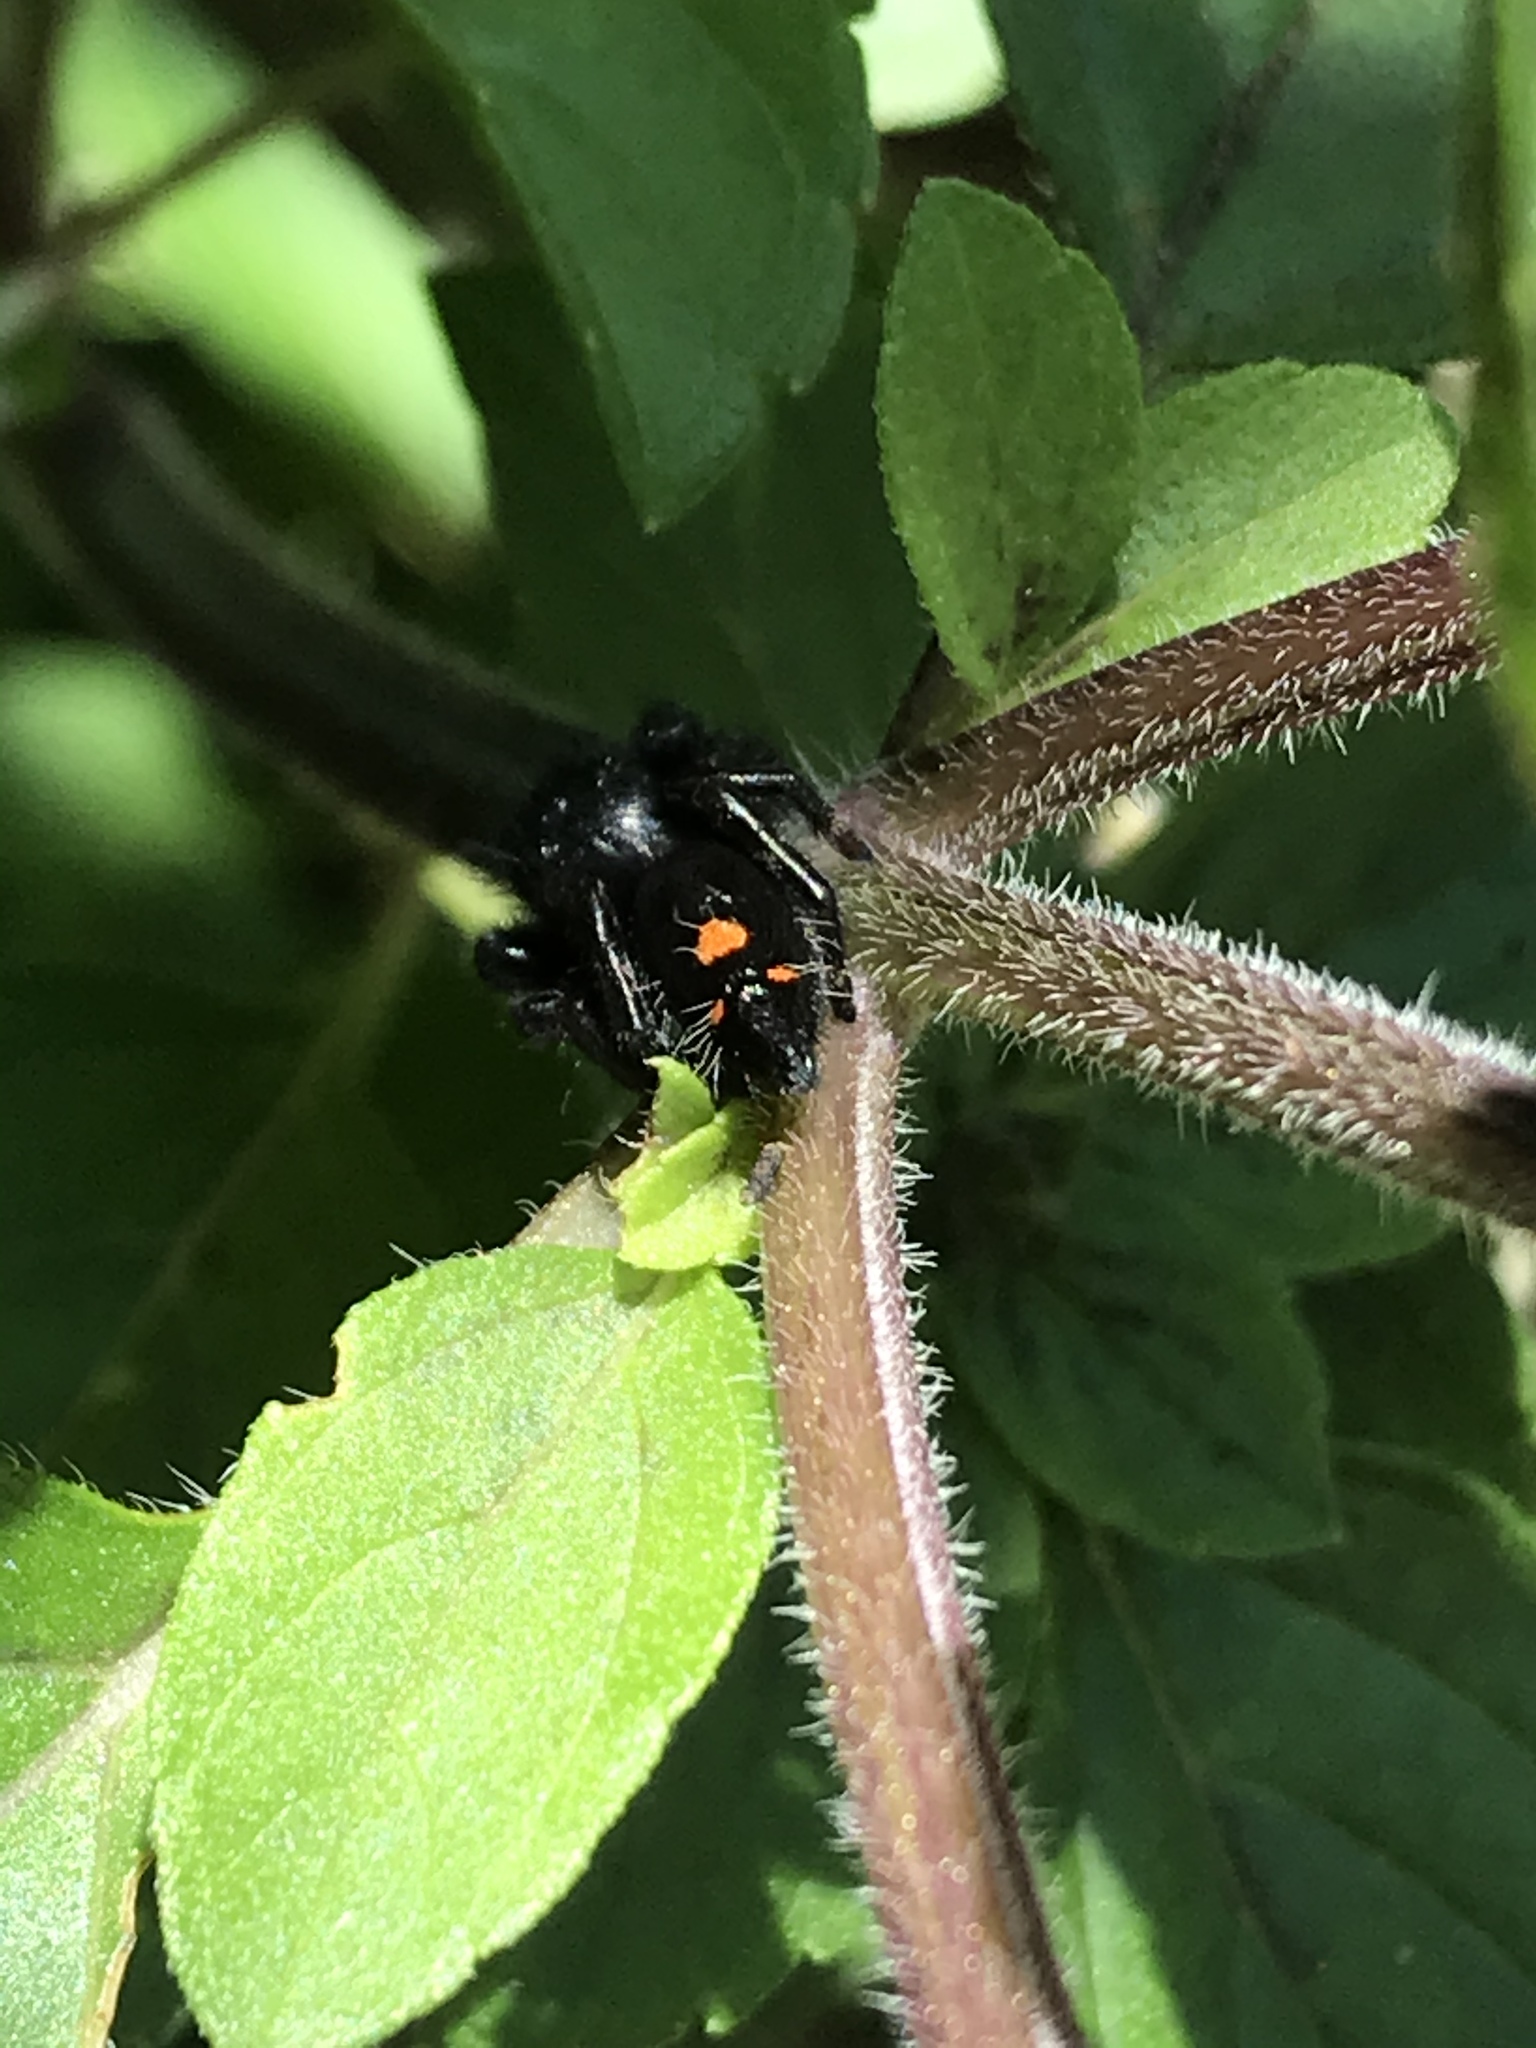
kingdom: Animalia
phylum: Arthropoda
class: Arachnida
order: Araneae
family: Salticidae
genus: Phidippus
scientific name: Phidippus audax
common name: Bold jumper
